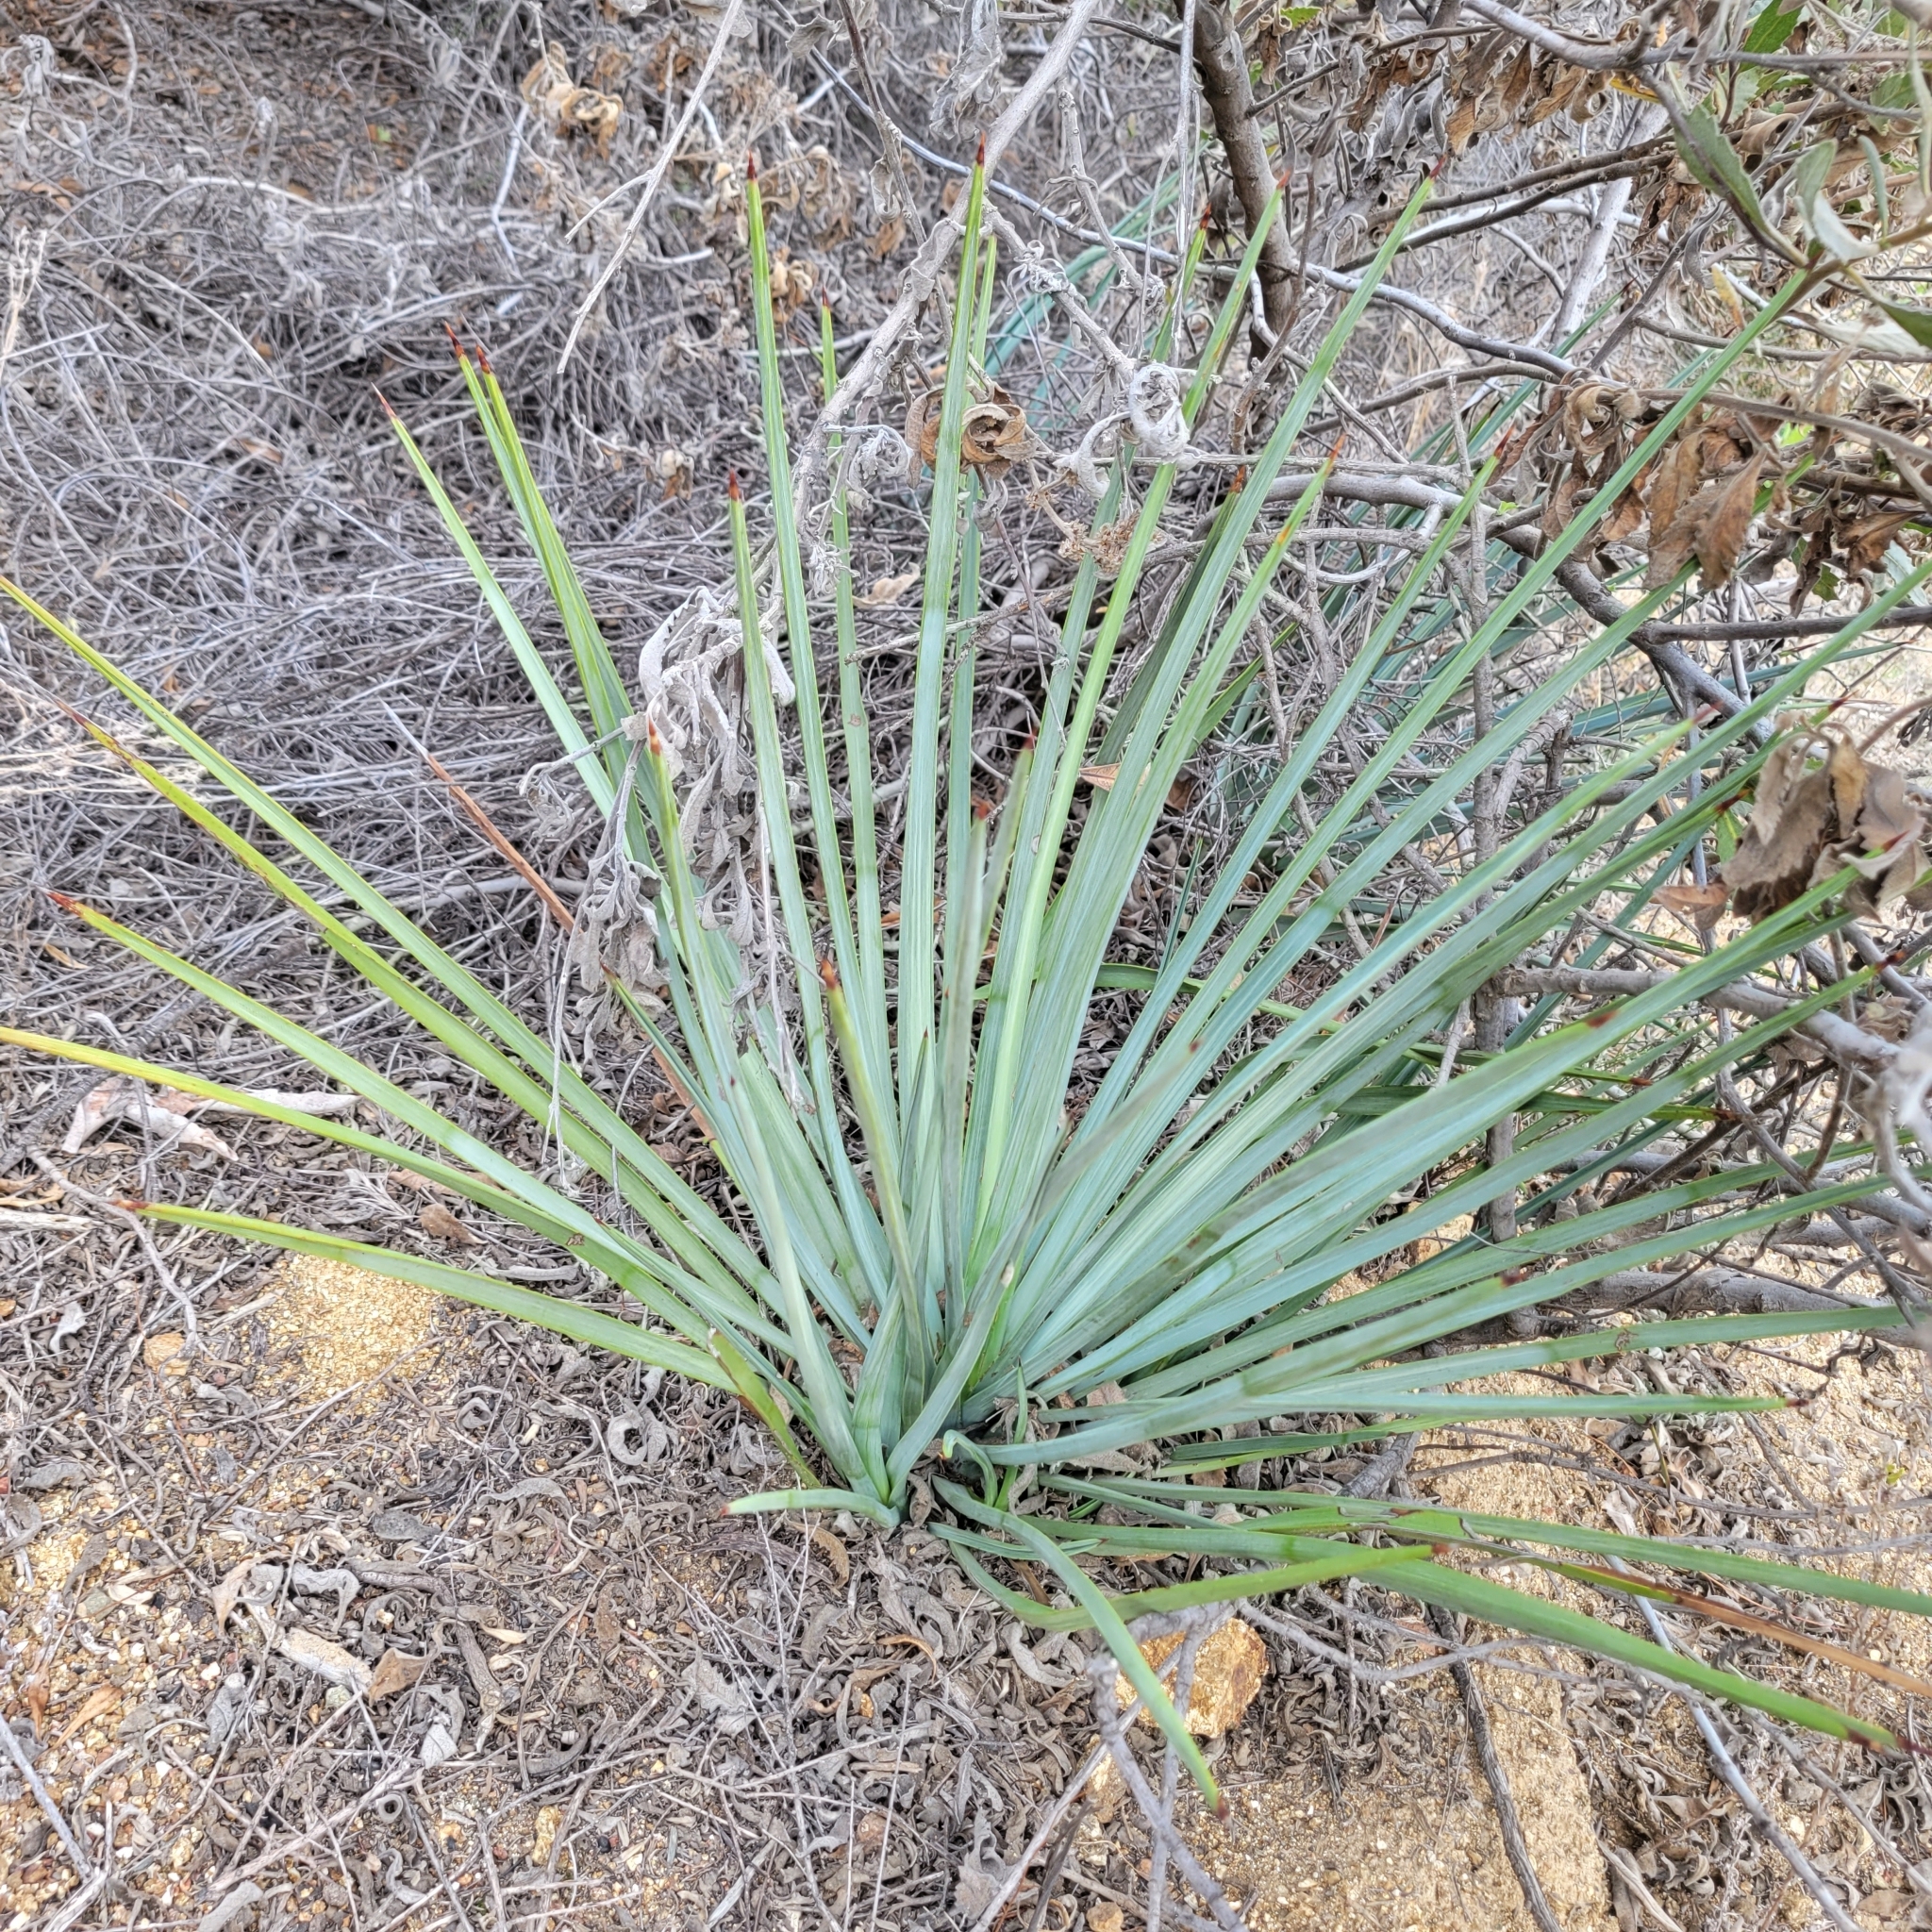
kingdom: Plantae
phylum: Tracheophyta
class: Liliopsida
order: Asparagales
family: Asparagaceae
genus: Hesperoyucca
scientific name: Hesperoyucca whipplei
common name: Our lord's-candle
